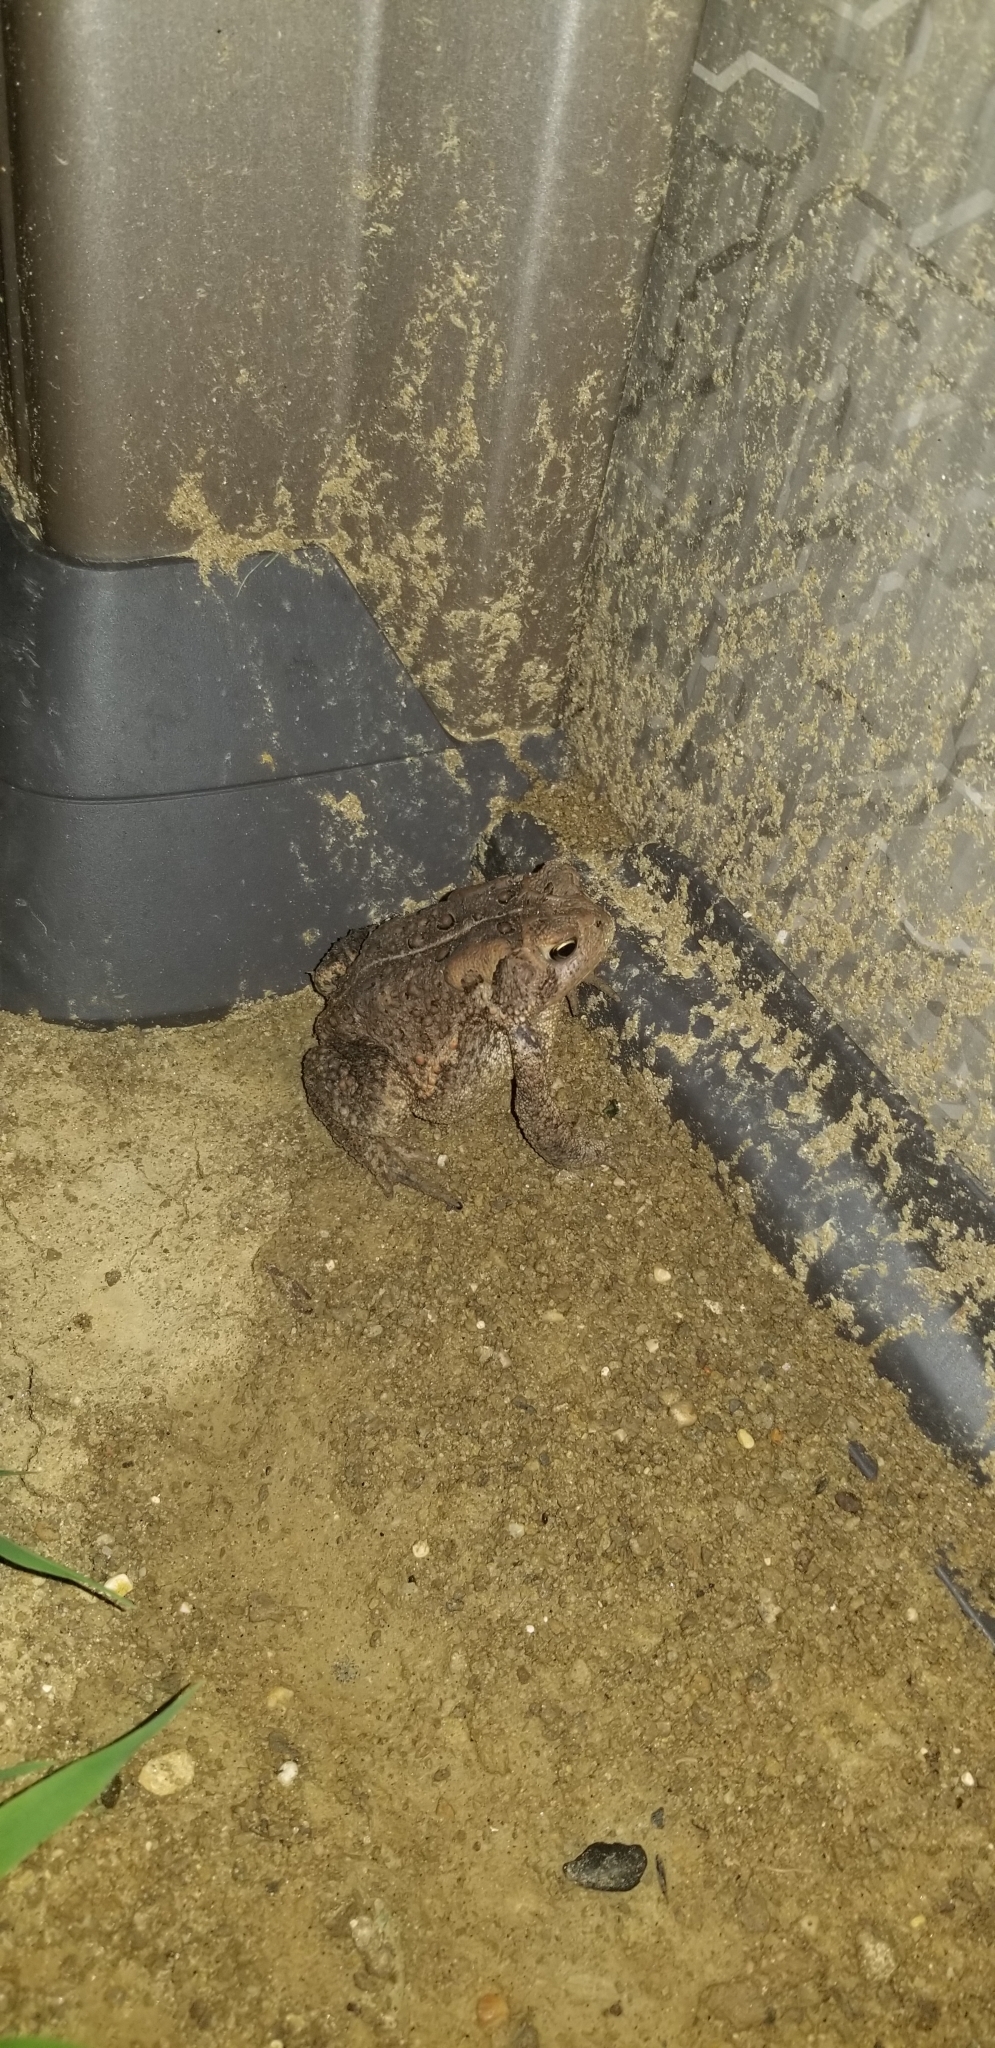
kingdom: Animalia
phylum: Chordata
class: Amphibia
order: Anura
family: Bufonidae
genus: Anaxyrus
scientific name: Anaxyrus americanus
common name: American toad
